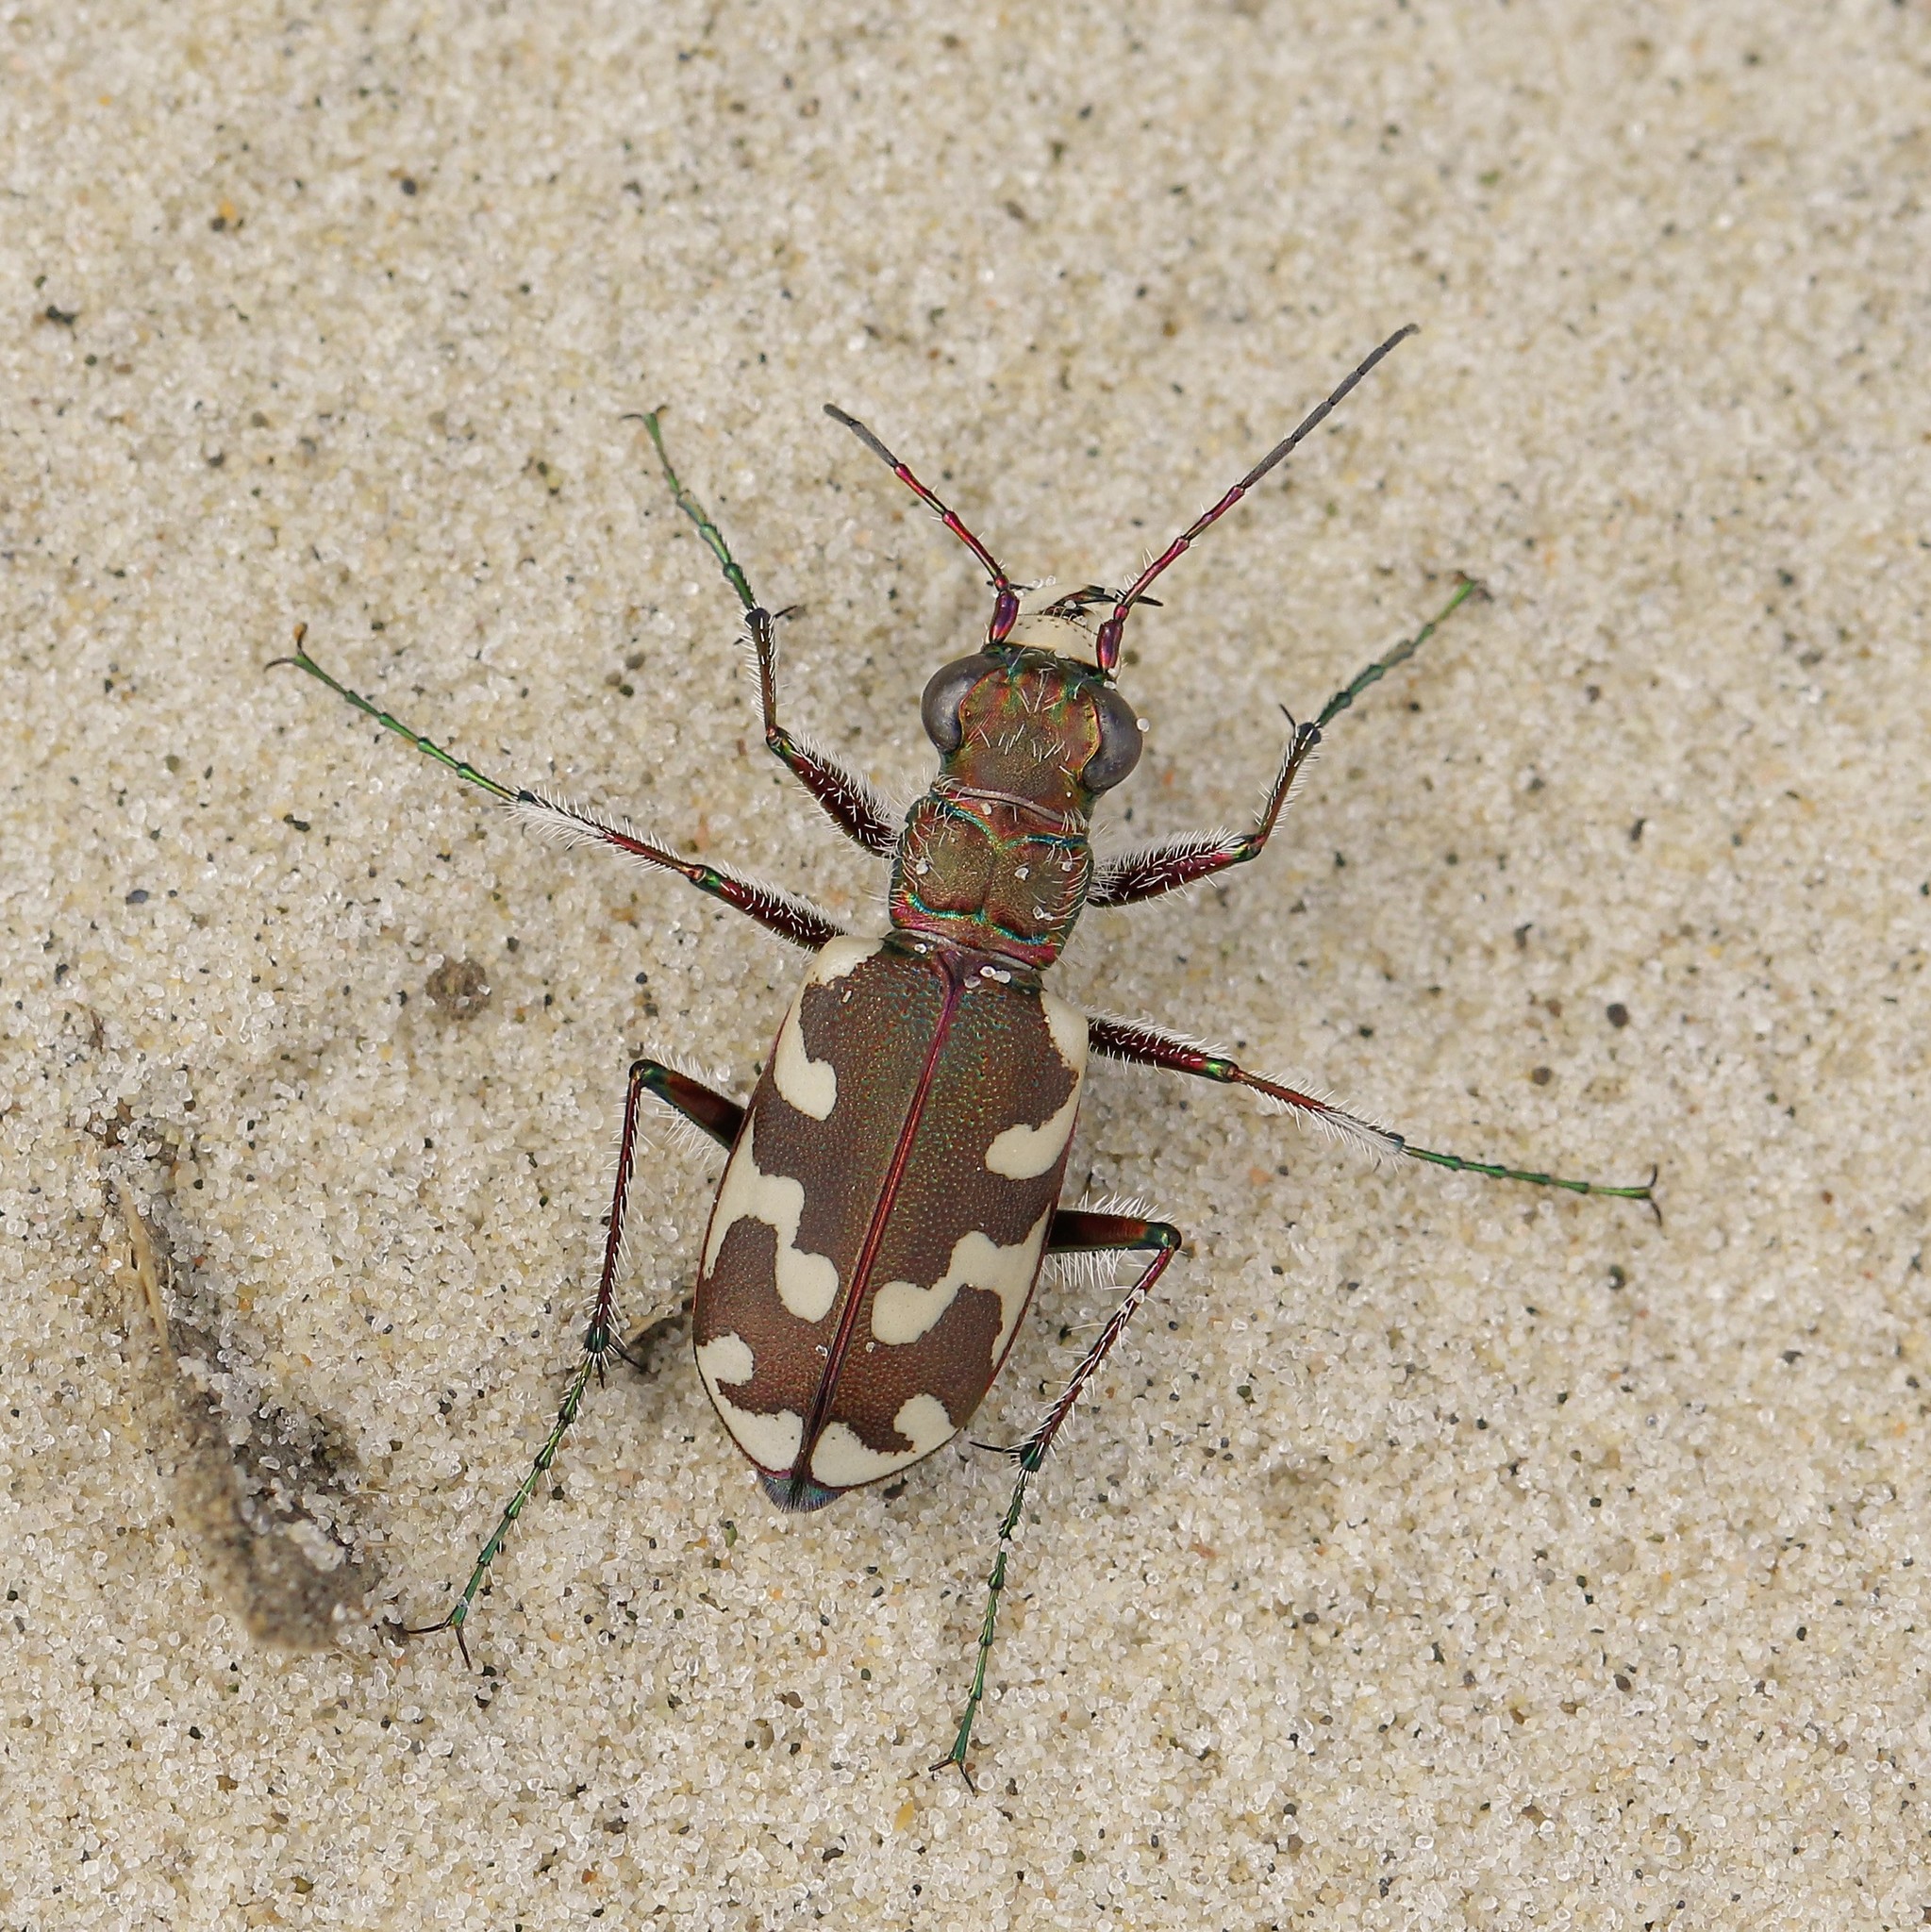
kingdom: Animalia
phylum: Arthropoda
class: Insecta
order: Coleoptera
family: Carabidae
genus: Cicindela
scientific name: Cicindela sahlbergii
